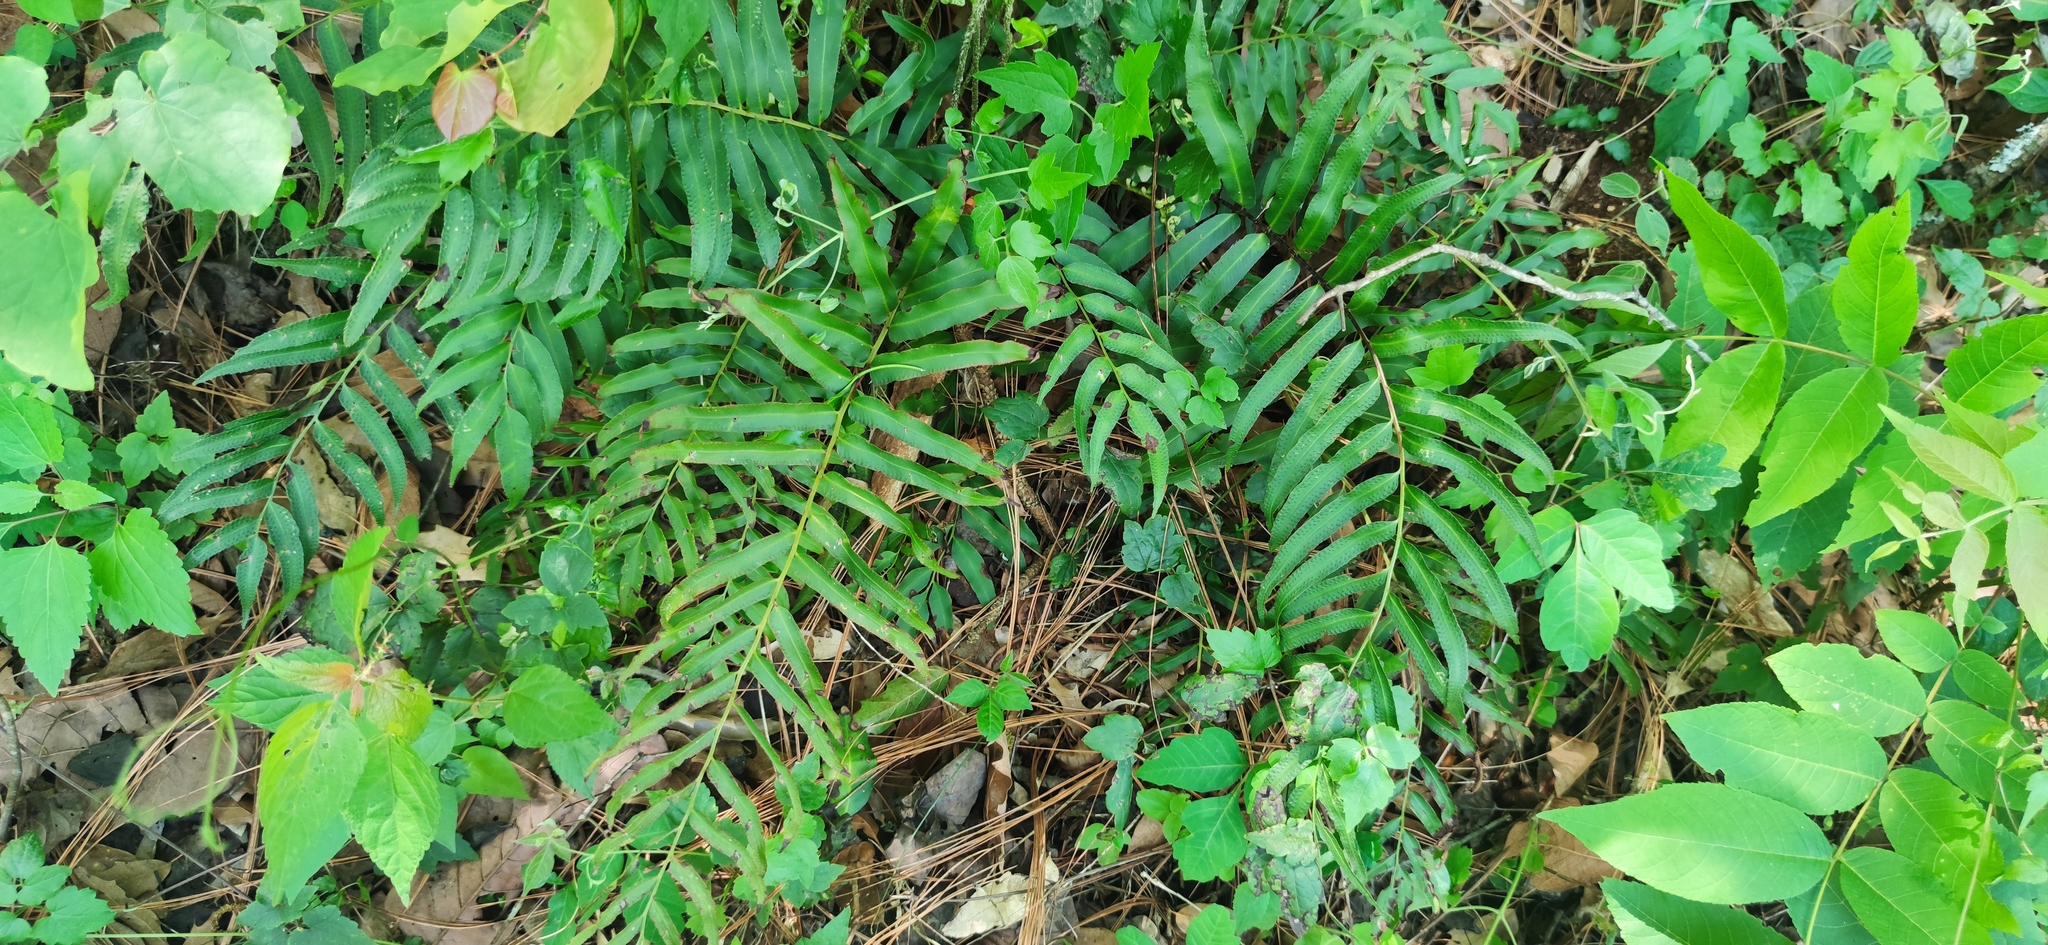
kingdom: Plantae
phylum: Tracheophyta
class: Polypodiopsida
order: Polypodiales
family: Dryopteridaceae
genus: Phanerophlebia
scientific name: Phanerophlebia umbonata
